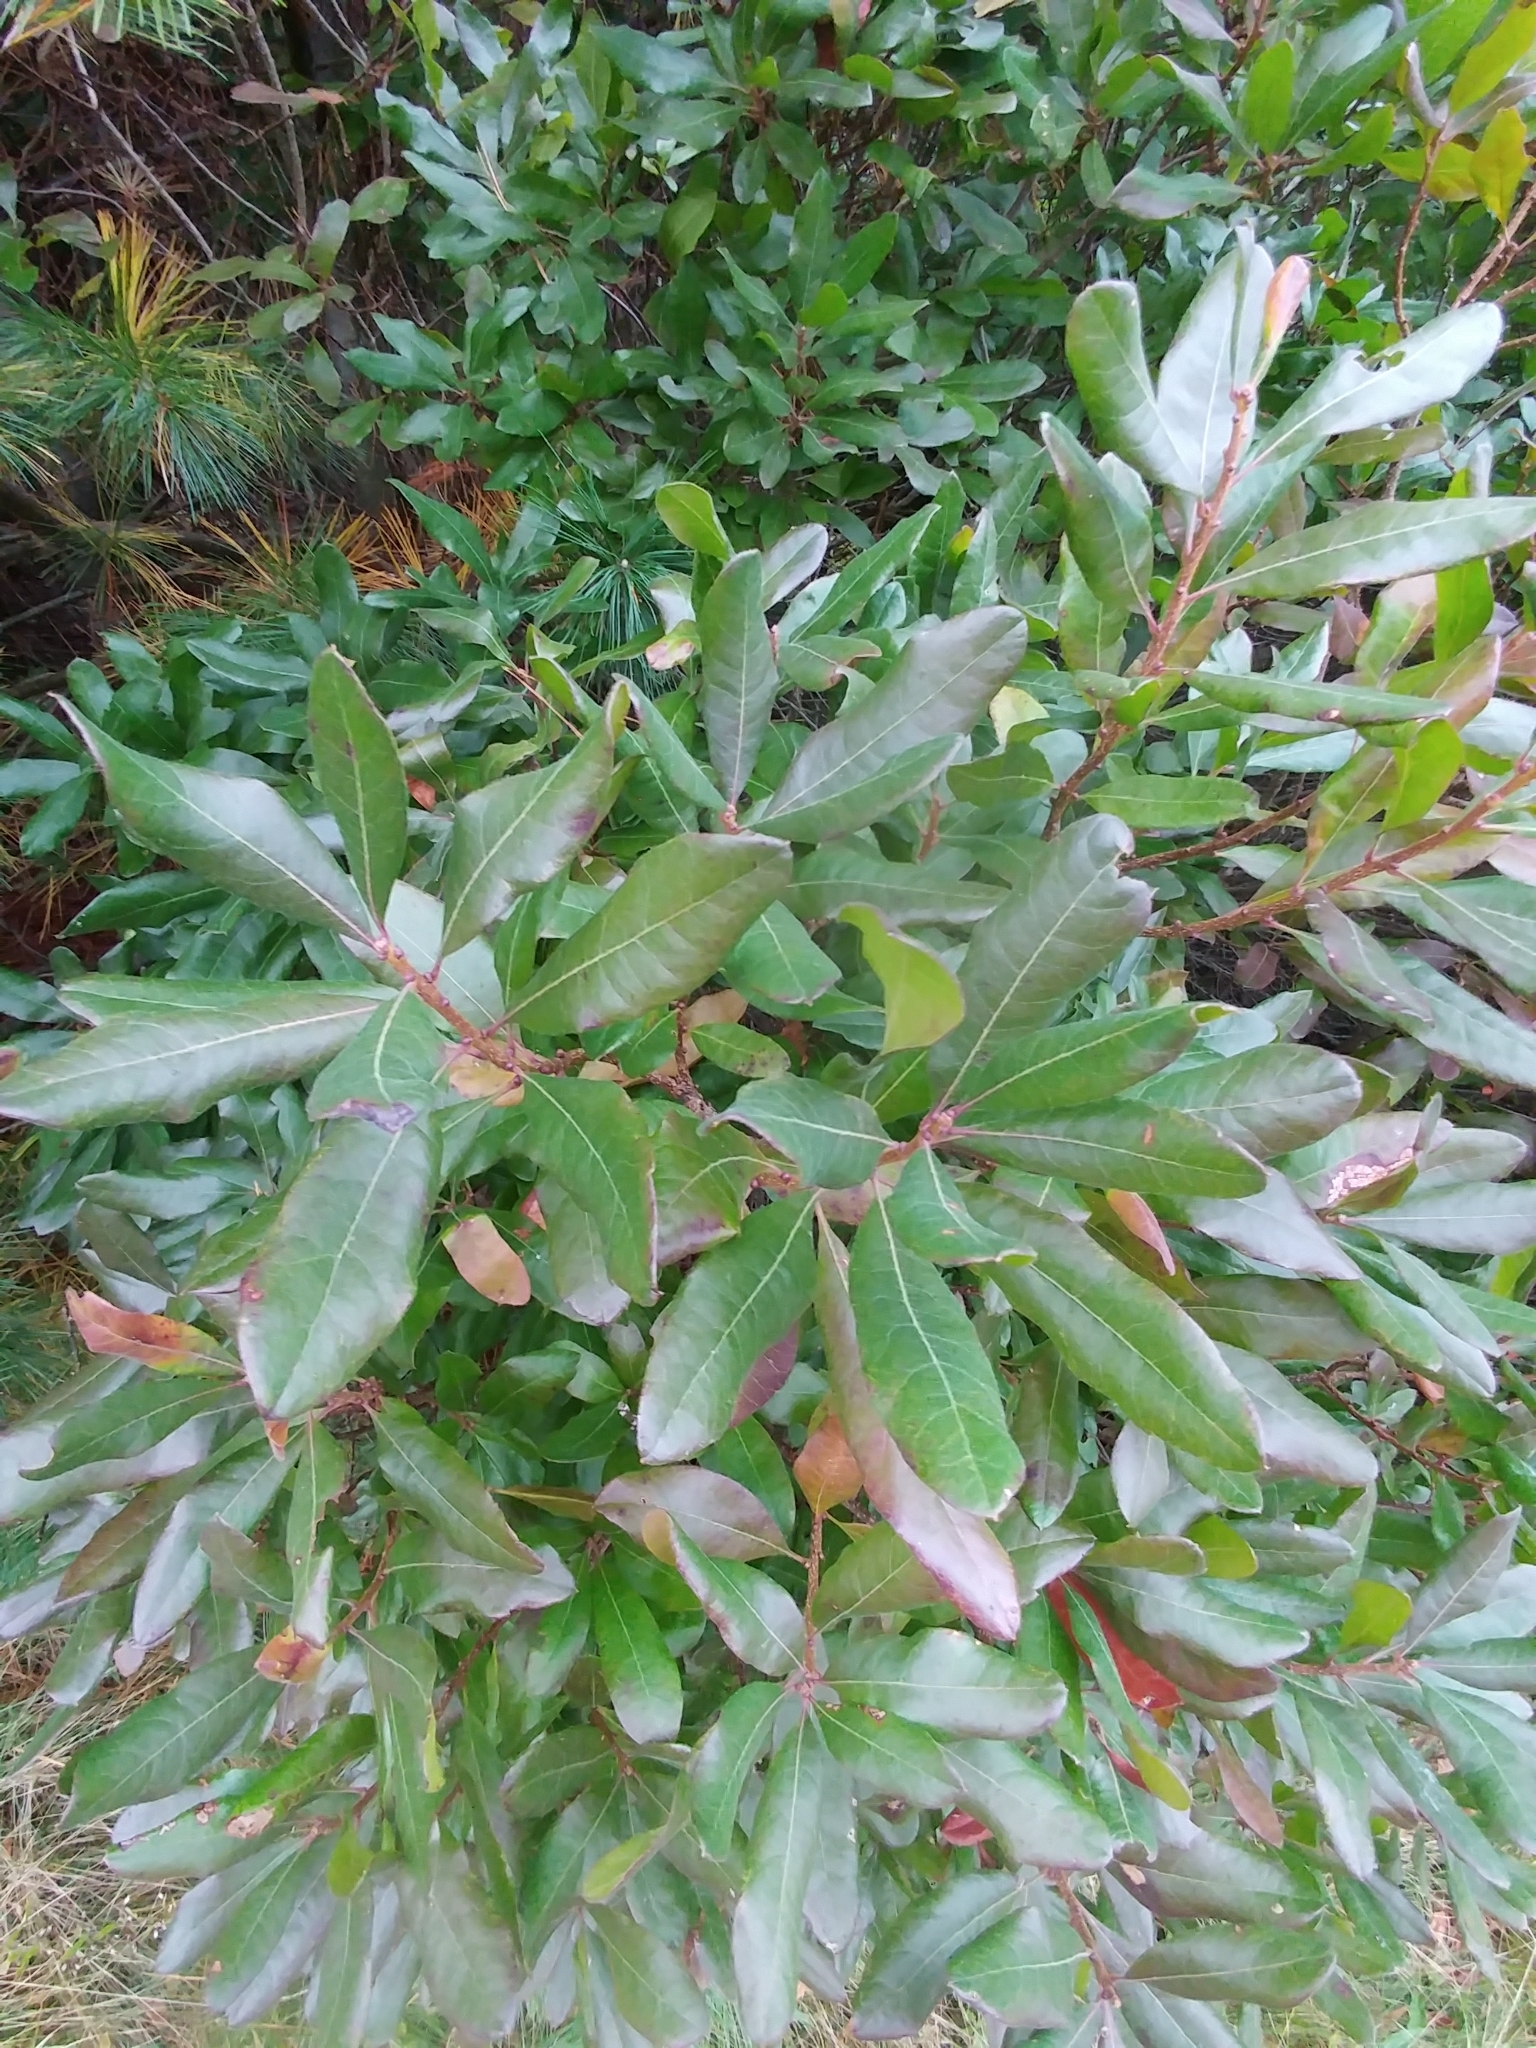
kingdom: Plantae
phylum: Tracheophyta
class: Magnoliopsida
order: Fagales
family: Myricaceae
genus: Morella
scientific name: Morella pensylvanica
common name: Northern bayberry
